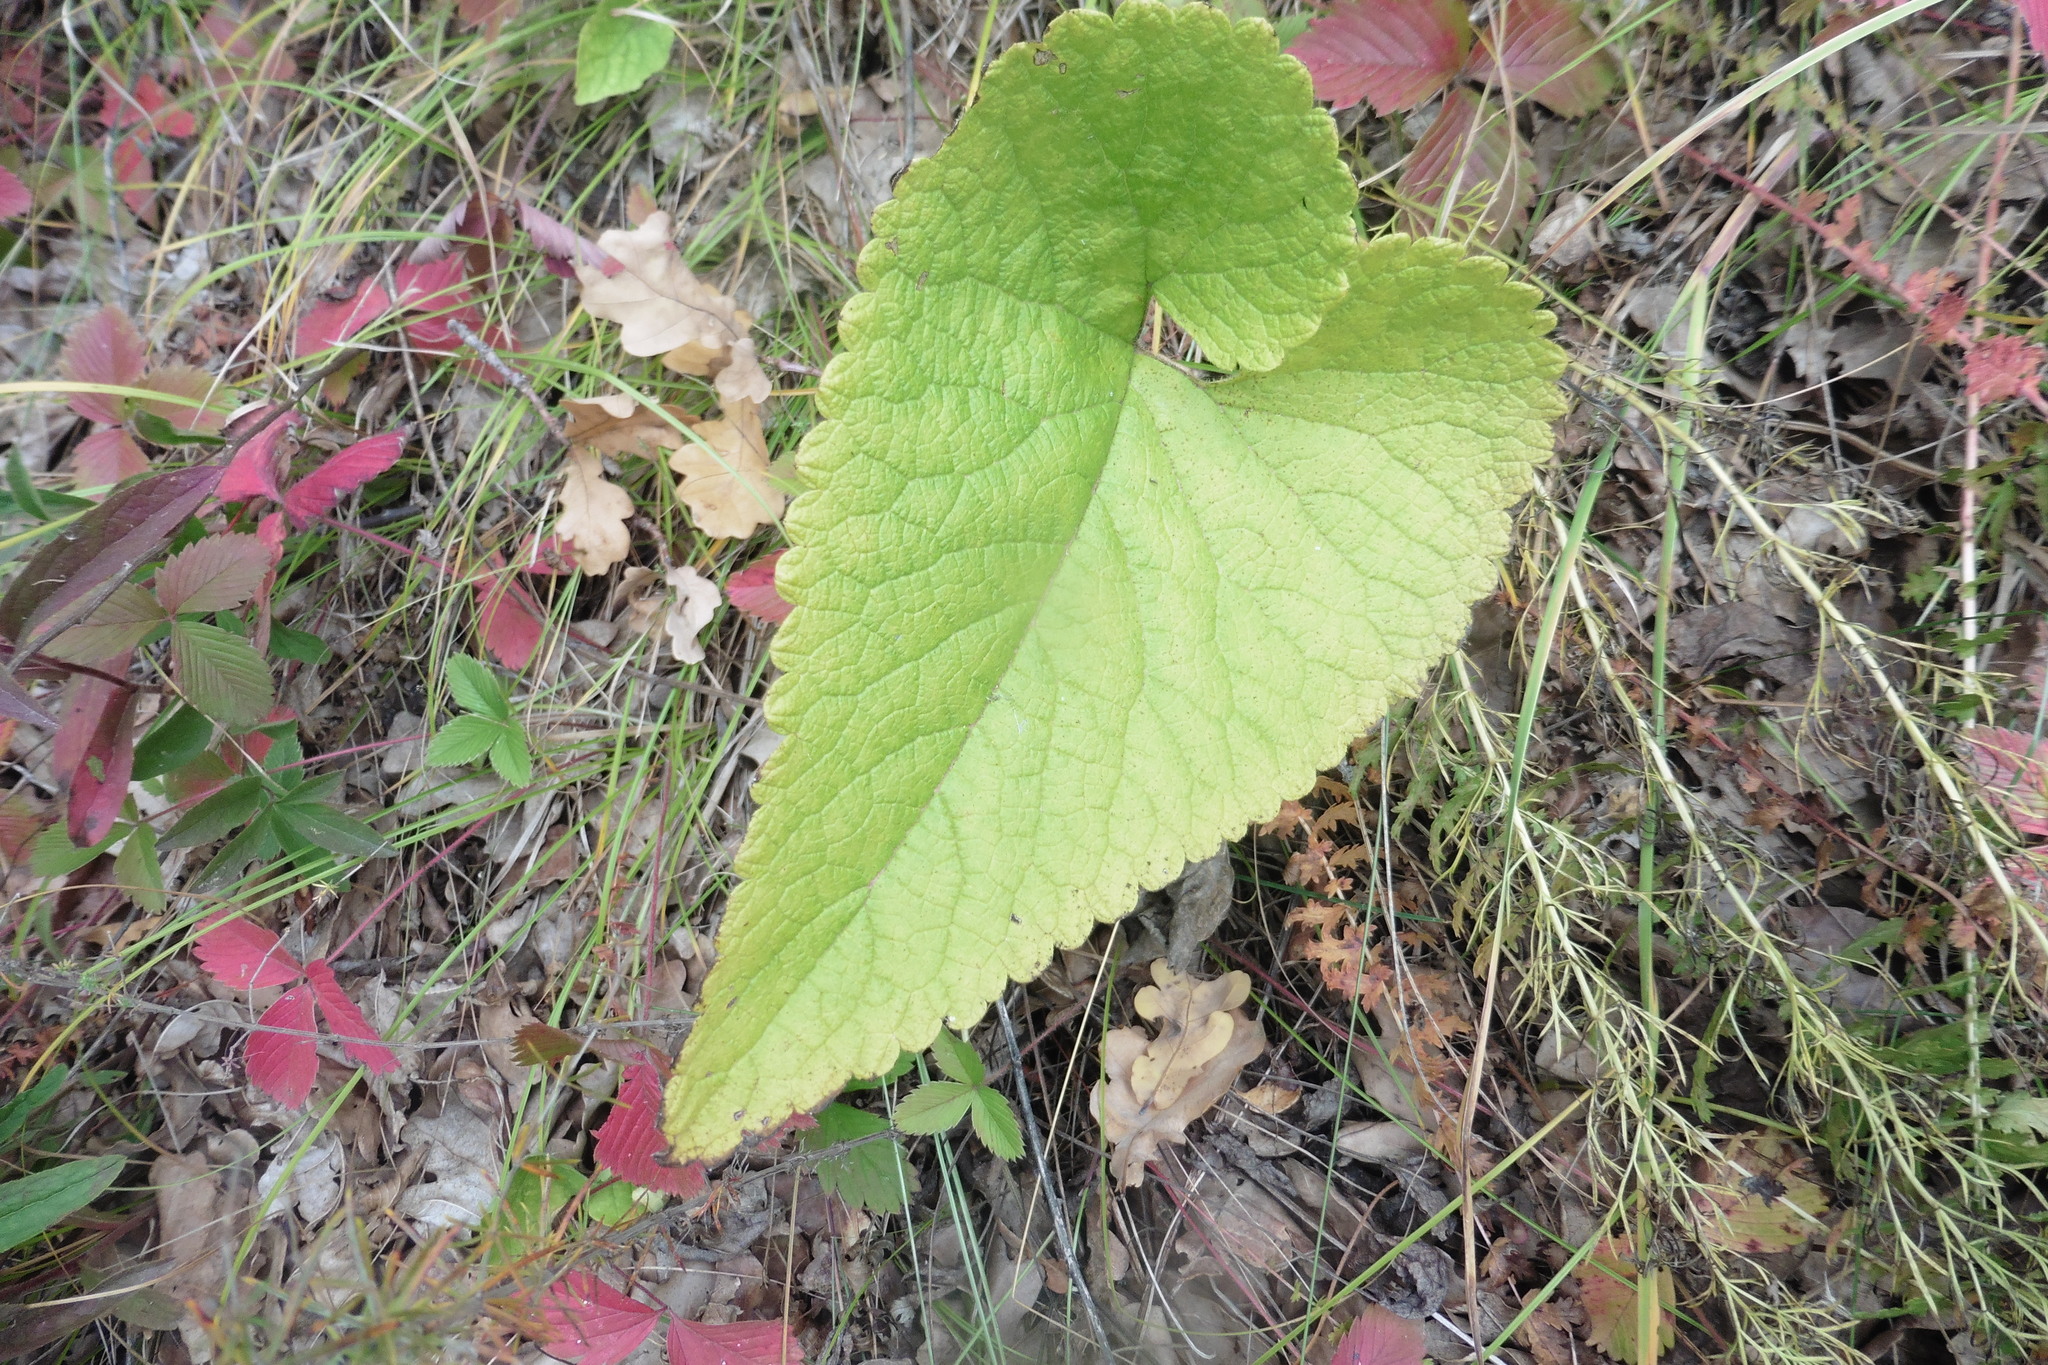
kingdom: Plantae
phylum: Tracheophyta
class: Magnoliopsida
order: Lamiales
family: Lamiaceae
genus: Phlomoides
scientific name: Phlomoides tuberosa
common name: Tuberous jerusalem sage
